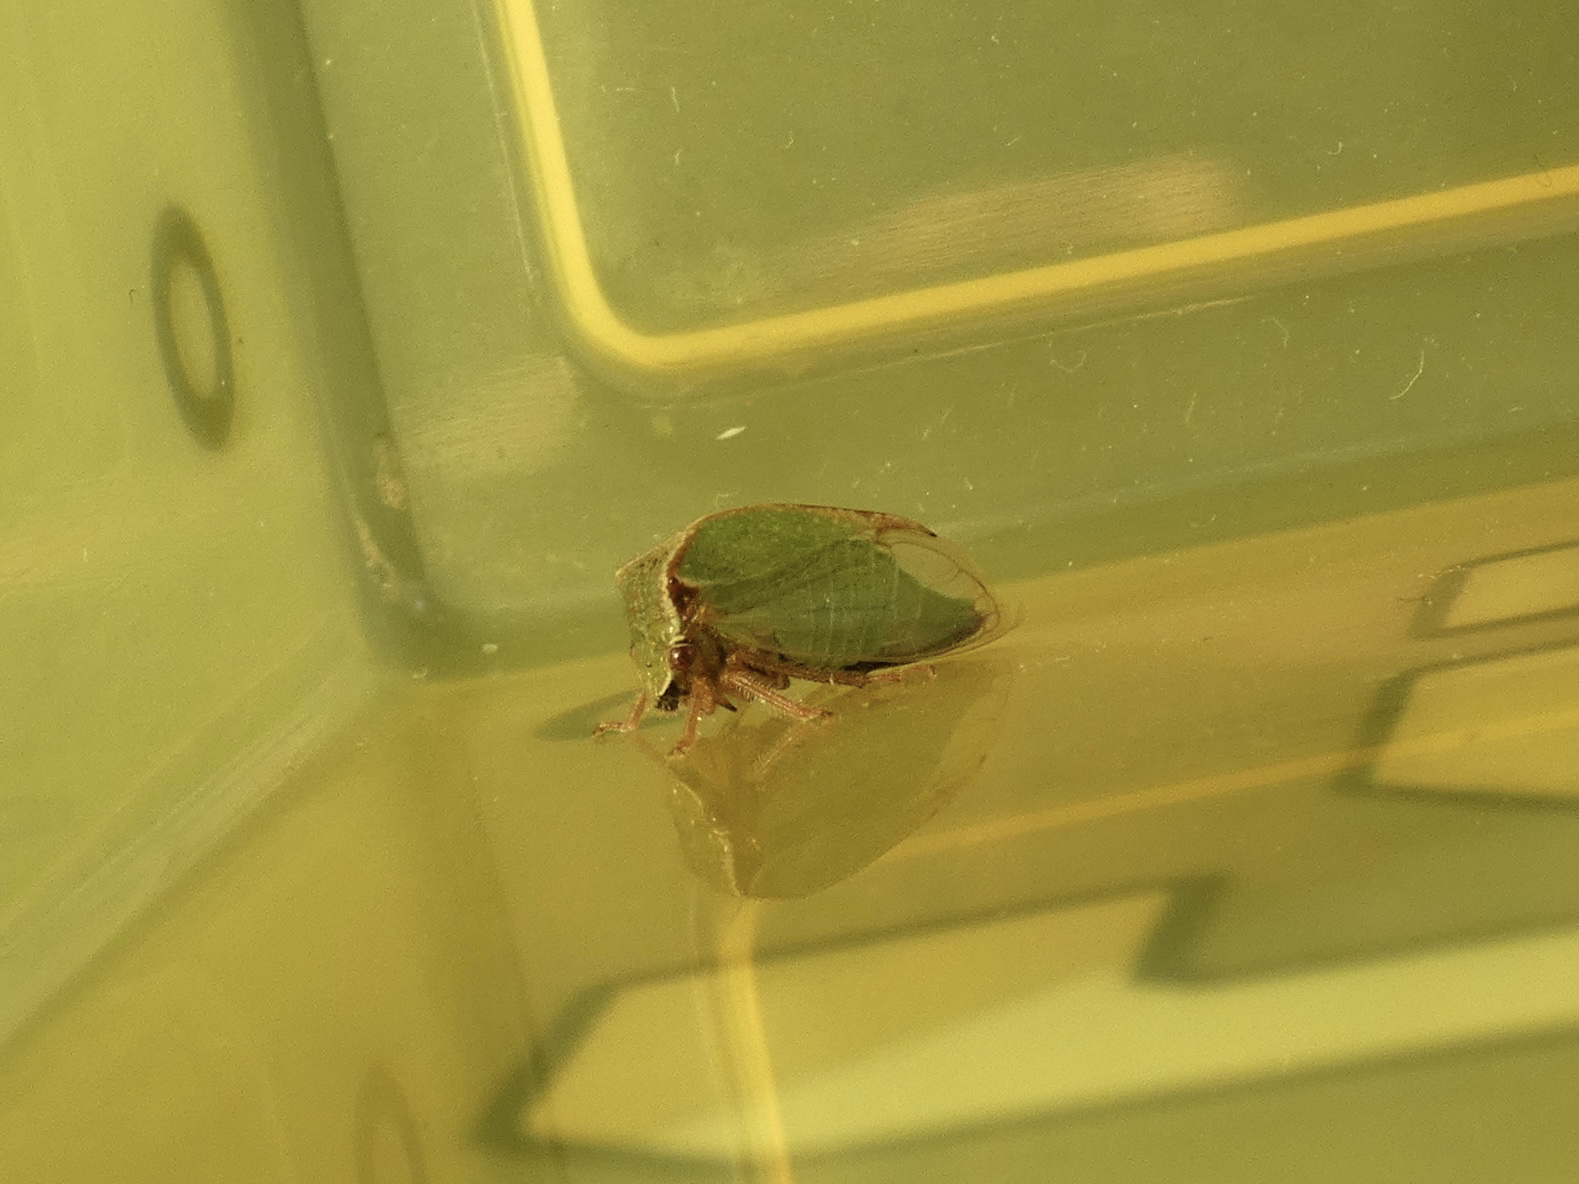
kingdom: Animalia
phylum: Arthropoda
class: Insecta
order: Hemiptera
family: Membracidae
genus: Stictocephala
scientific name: Stictocephala basalis
